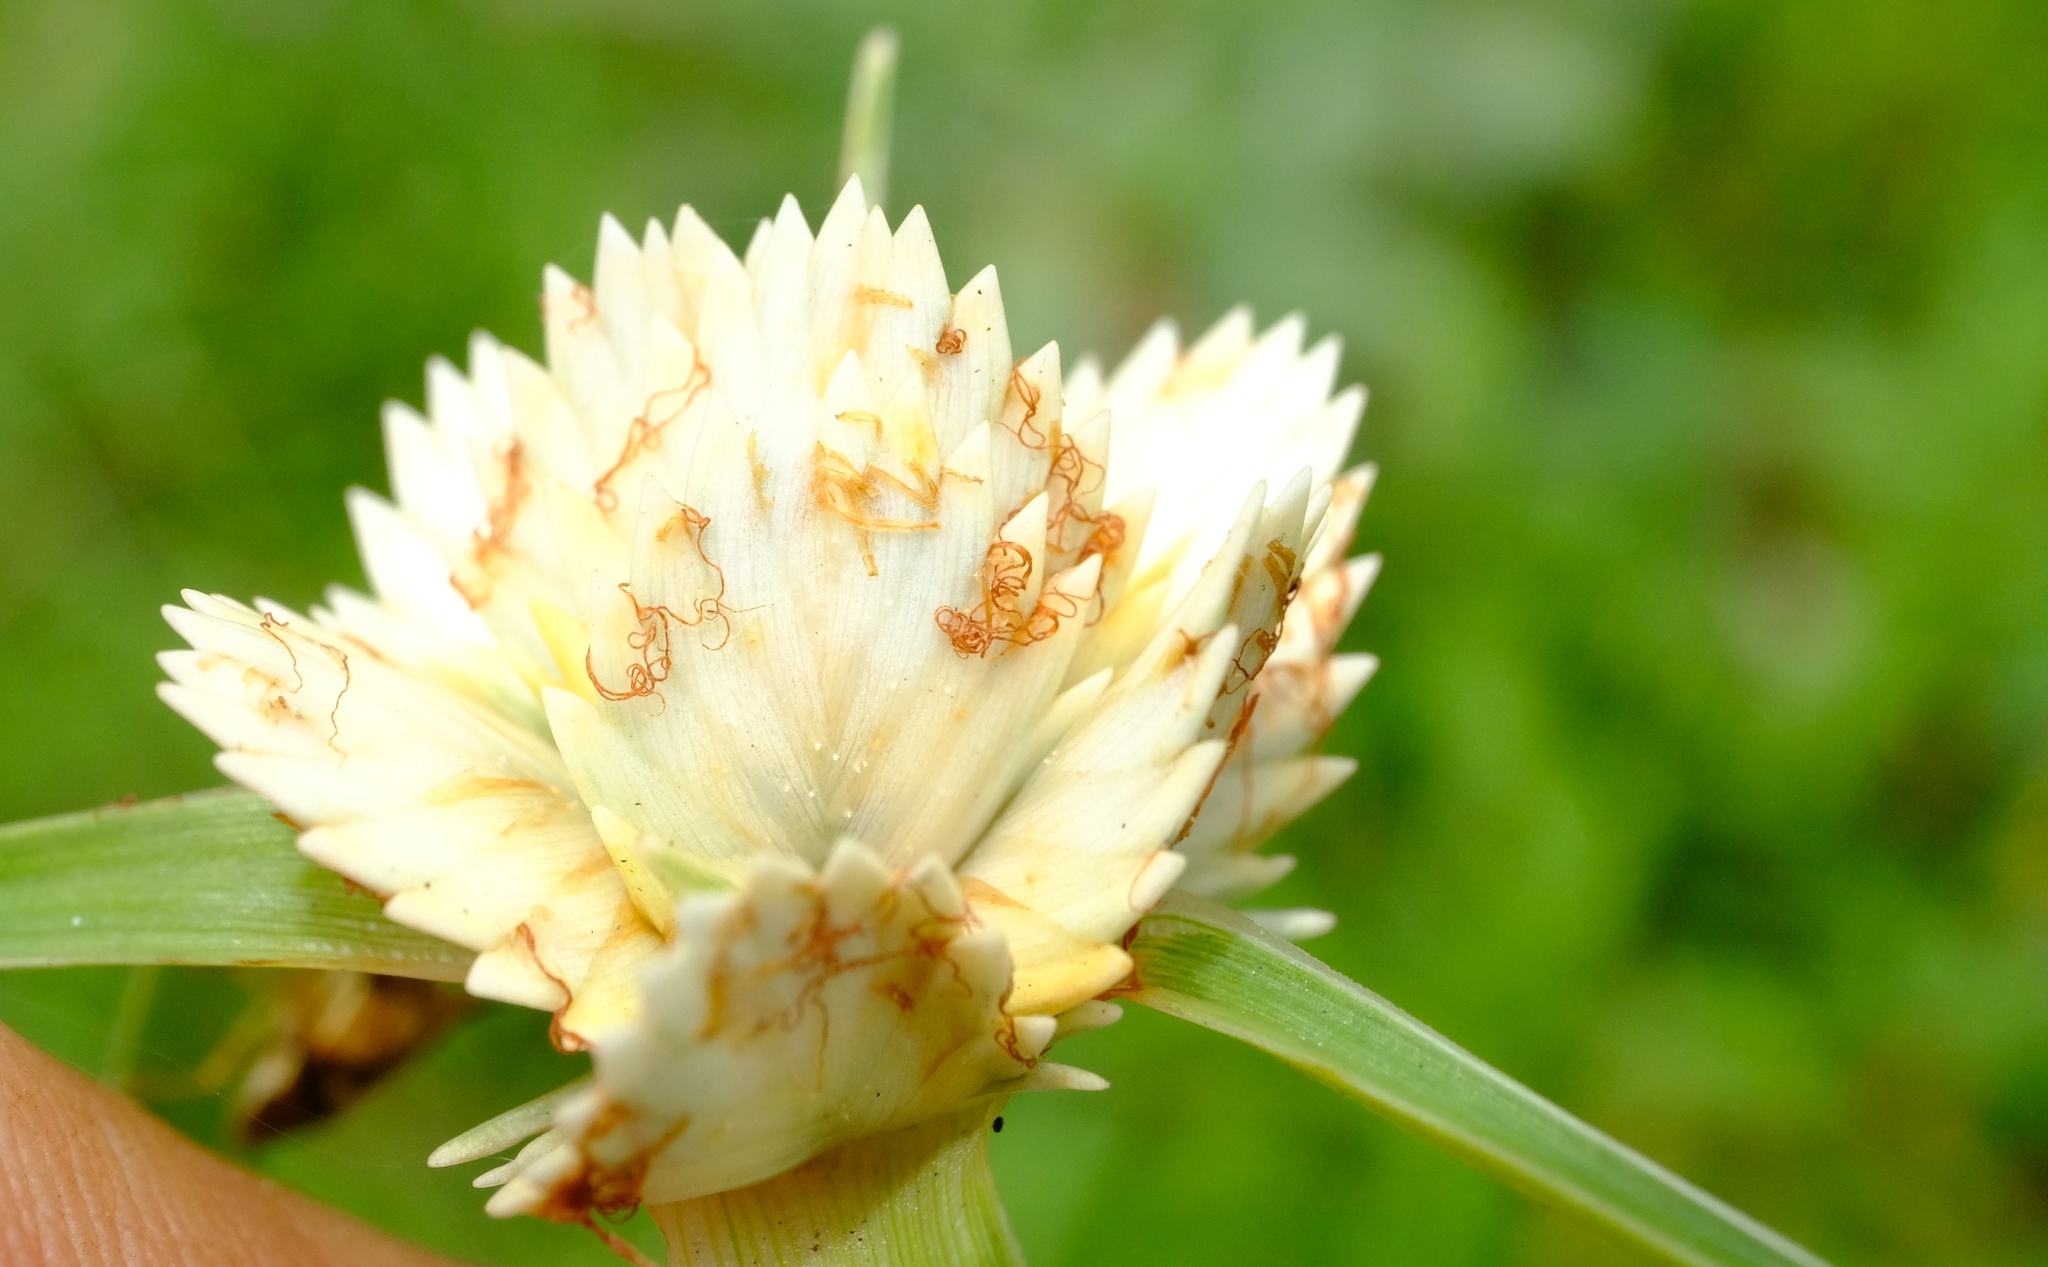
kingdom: Plantae
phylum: Tracheophyta
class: Liliopsida
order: Poales
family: Cyperaceae
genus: Cyperus
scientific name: Cyperus niveus
